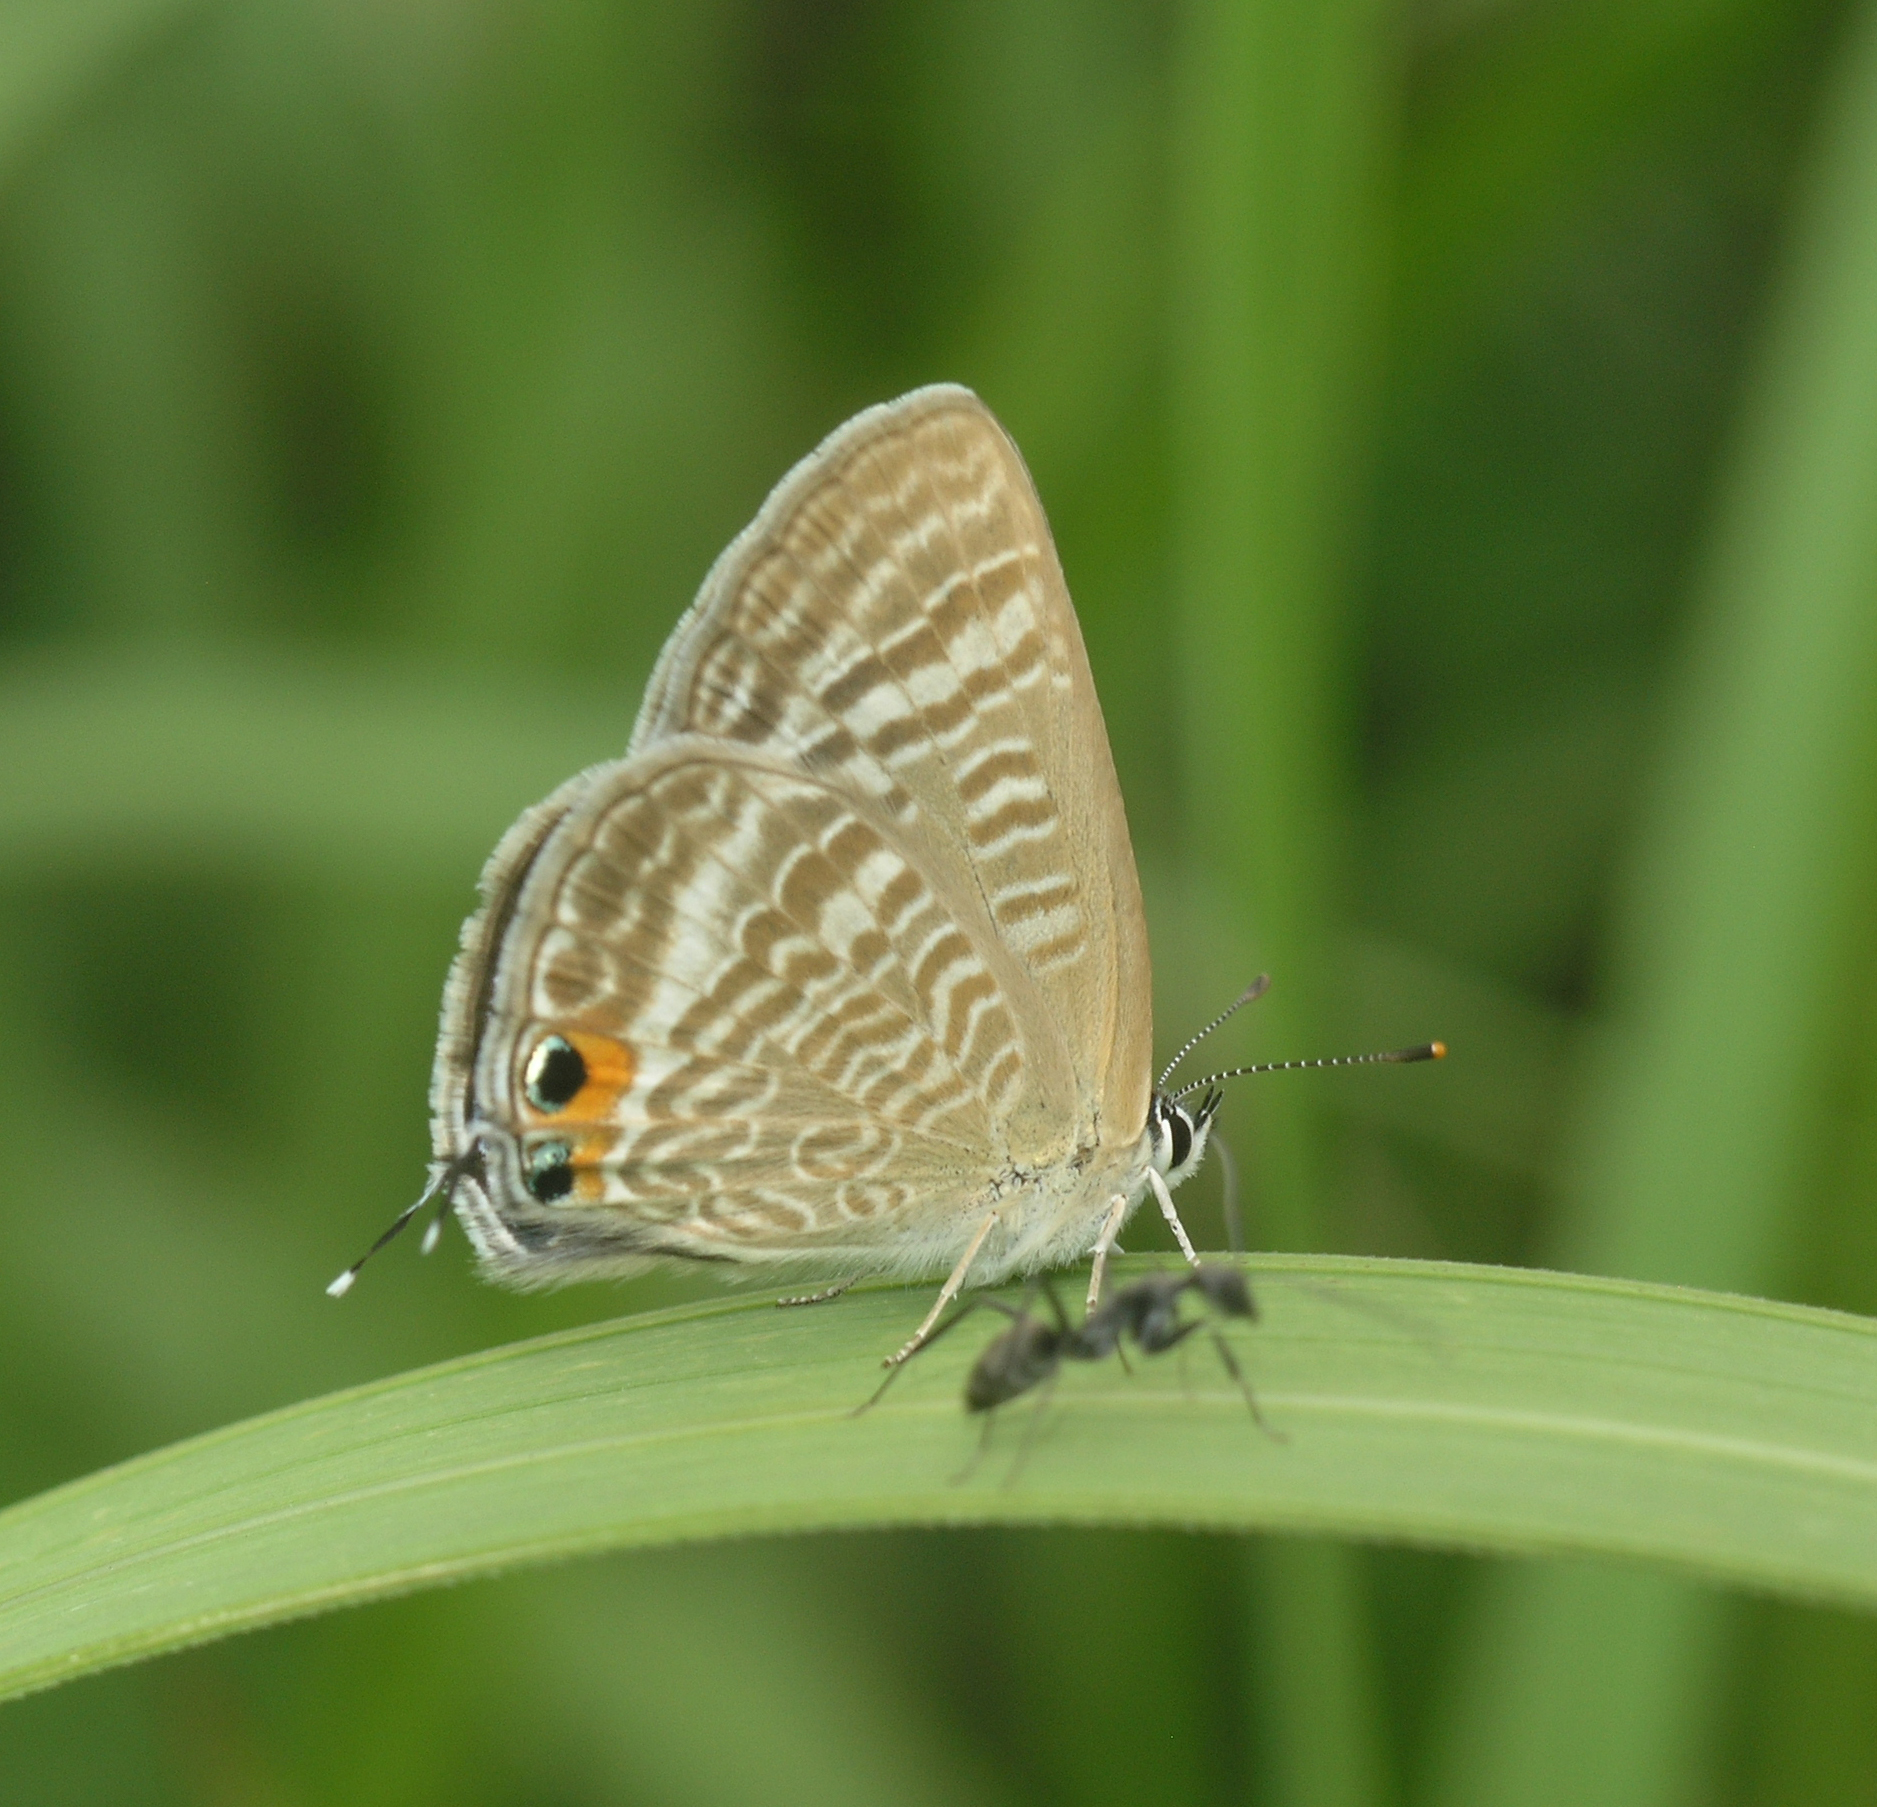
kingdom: Animalia
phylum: Arthropoda
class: Insecta
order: Lepidoptera
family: Lycaenidae
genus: Lampides
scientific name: Lampides boeticus
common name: Long-tailed blue
